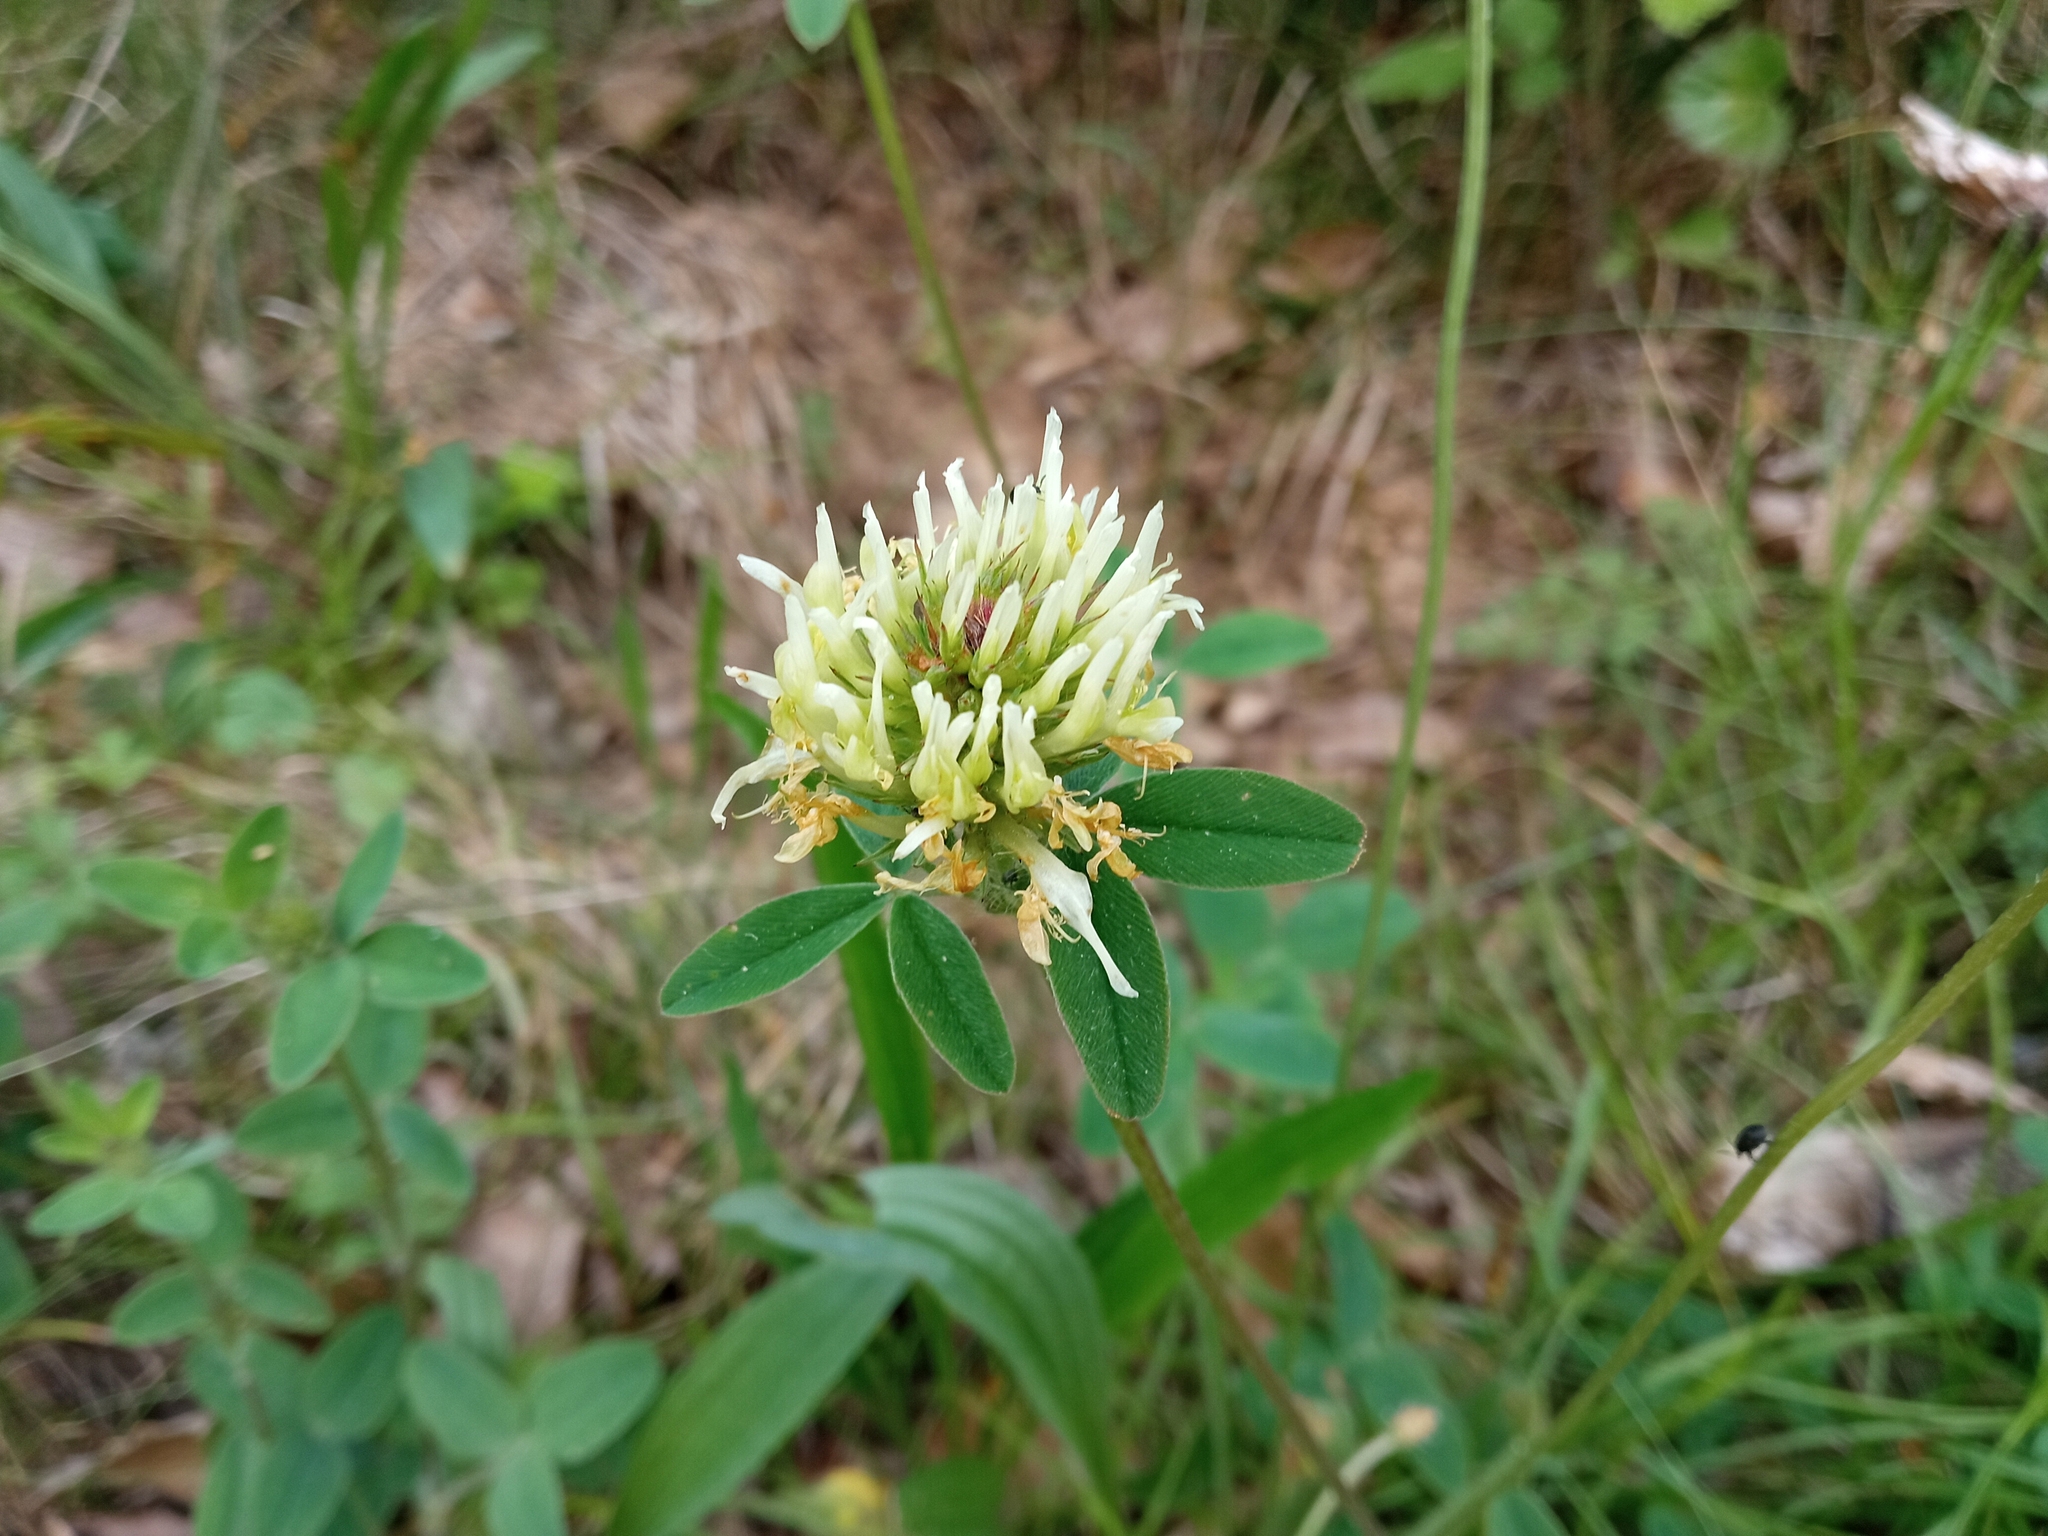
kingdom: Plantae
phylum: Tracheophyta
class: Magnoliopsida
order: Fabales
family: Fabaceae
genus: Trifolium
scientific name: Trifolium ochroleucon
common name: Sulphur clover
